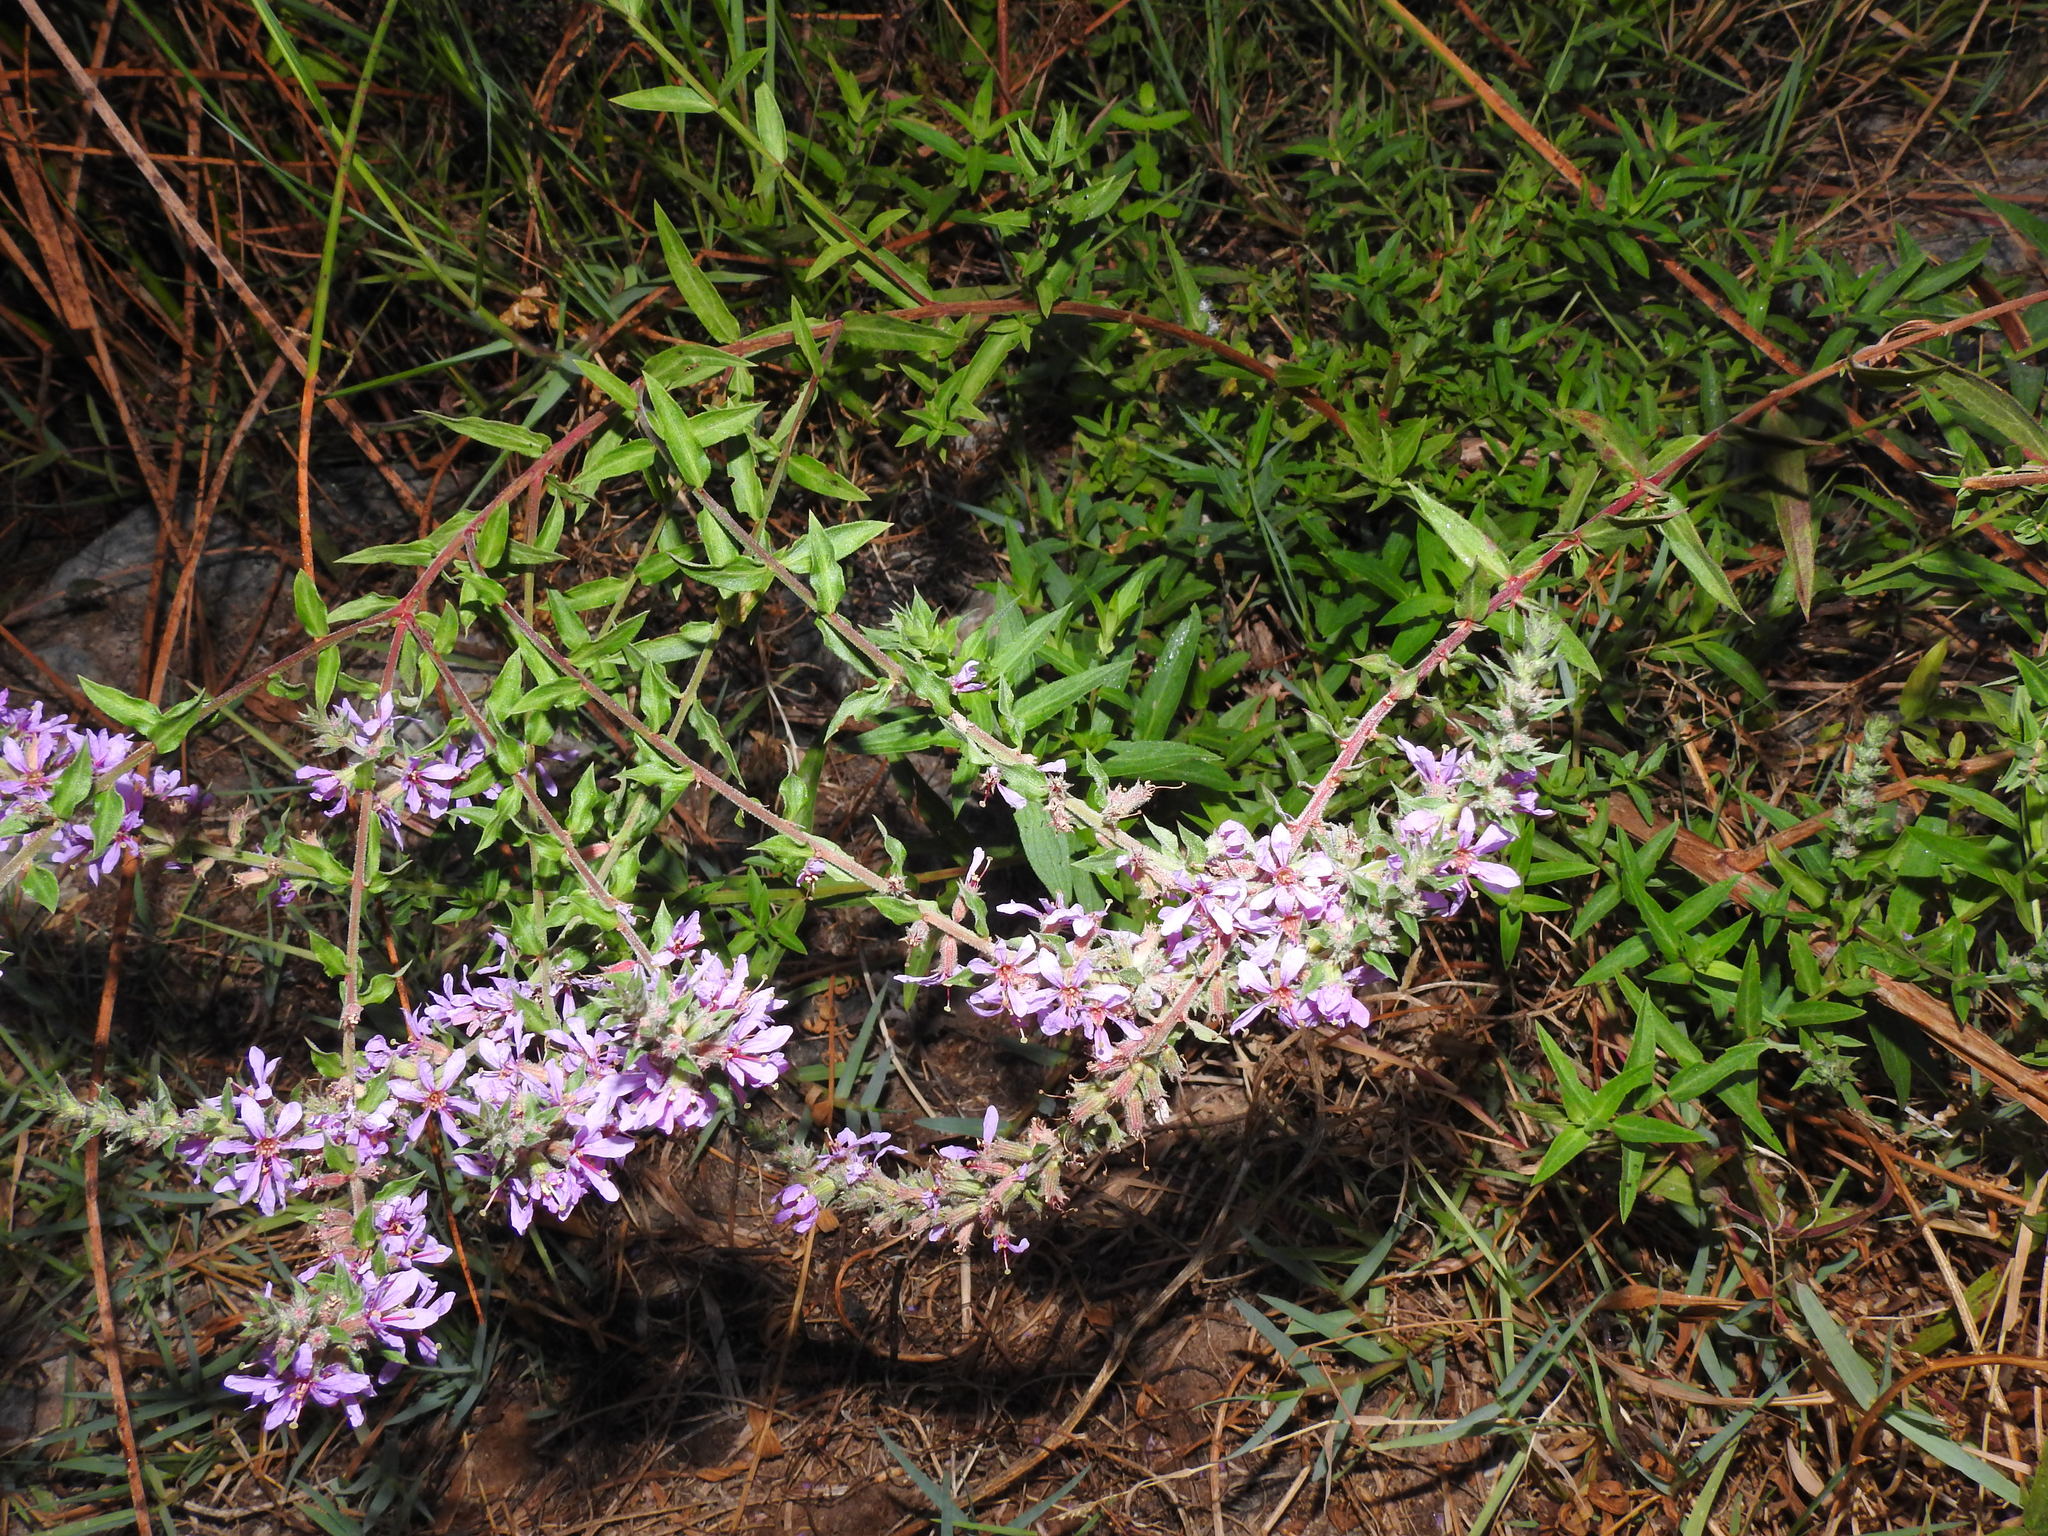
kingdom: Plantae
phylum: Tracheophyta
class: Magnoliopsida
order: Myrtales
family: Lythraceae
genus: Lythrum
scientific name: Lythrum salicaria
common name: Purple loosestrife
